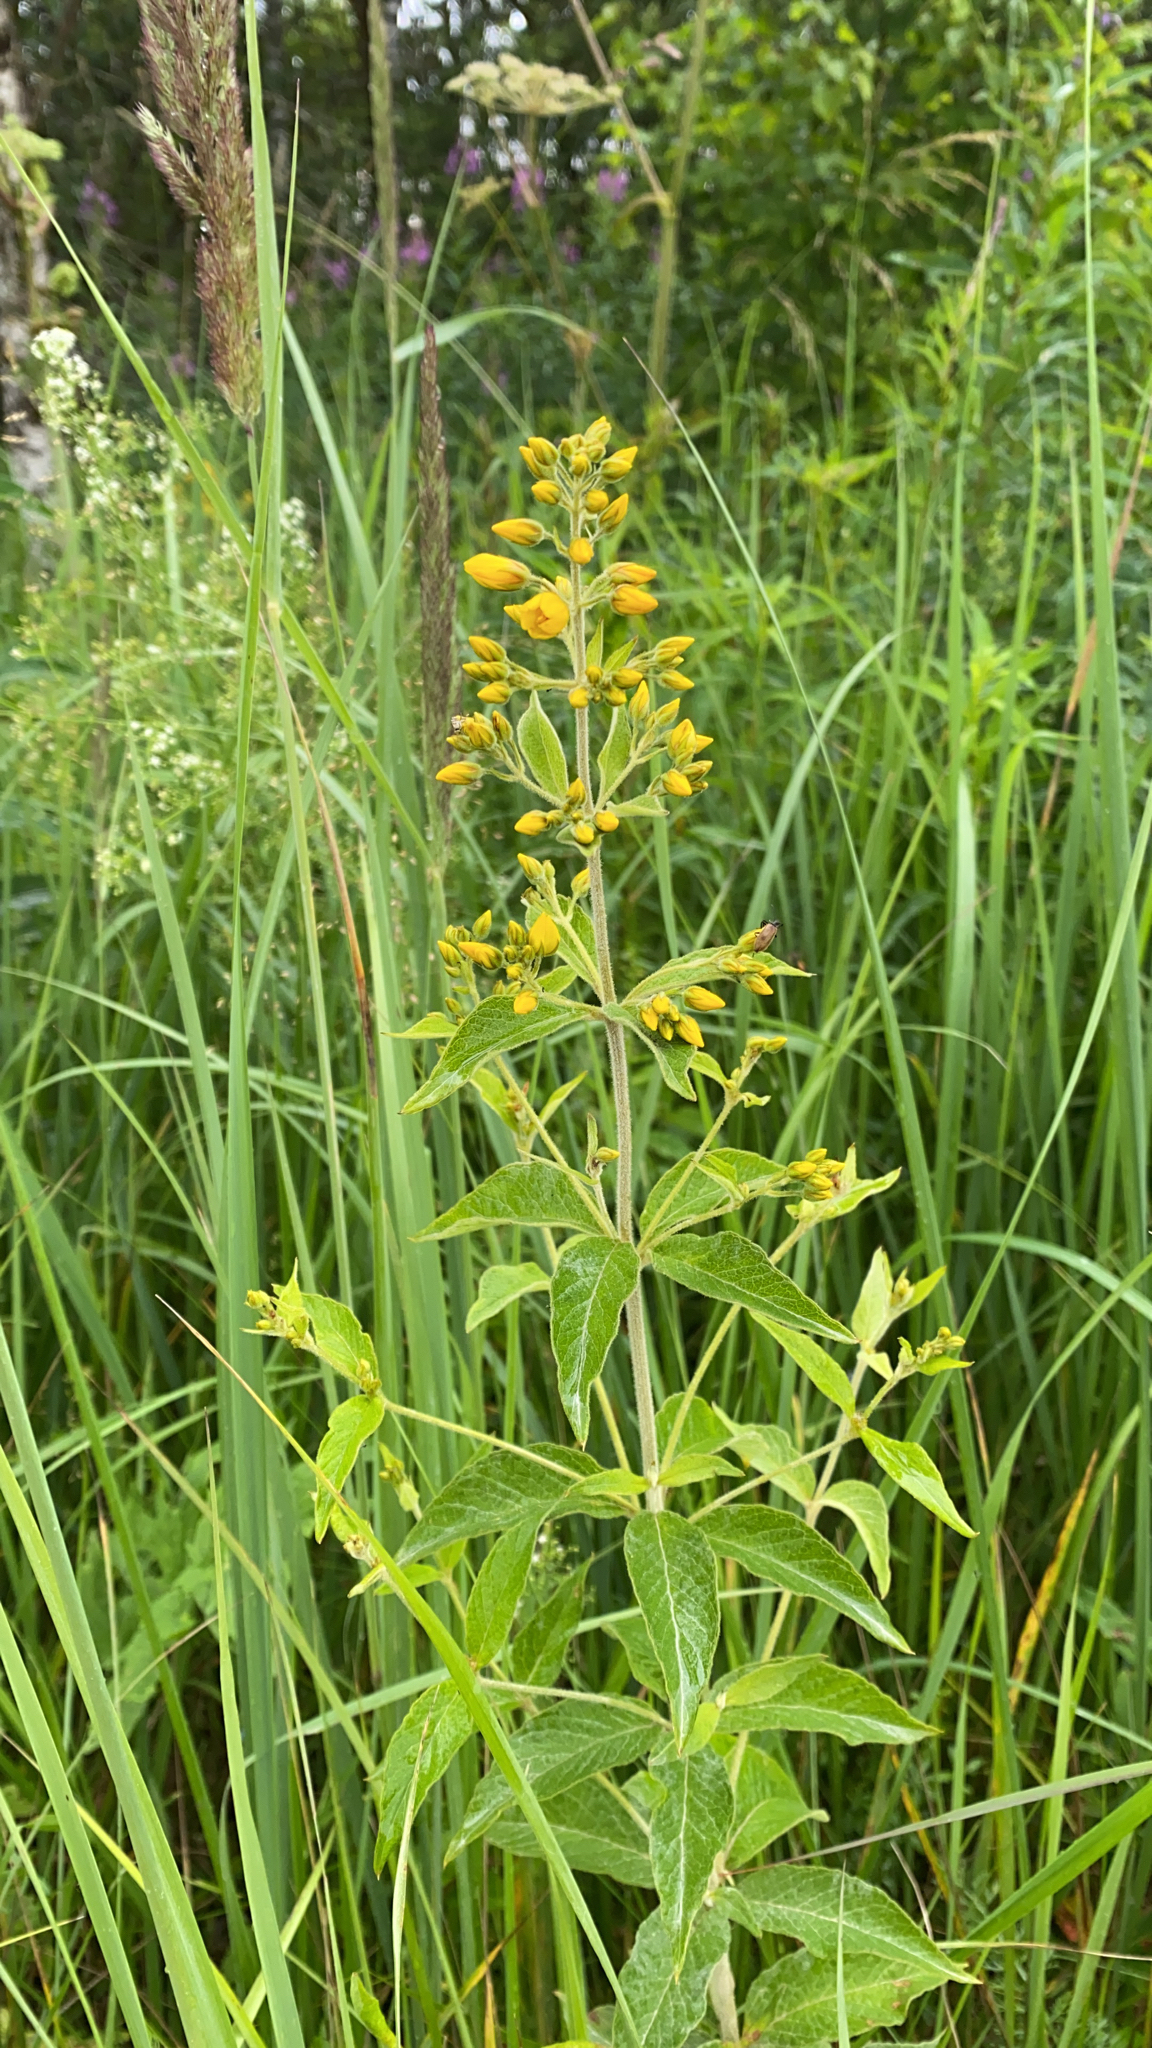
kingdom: Plantae
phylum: Tracheophyta
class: Magnoliopsida
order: Ericales
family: Primulaceae
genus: Lysimachia
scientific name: Lysimachia vulgaris
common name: Yellow loosestrife
